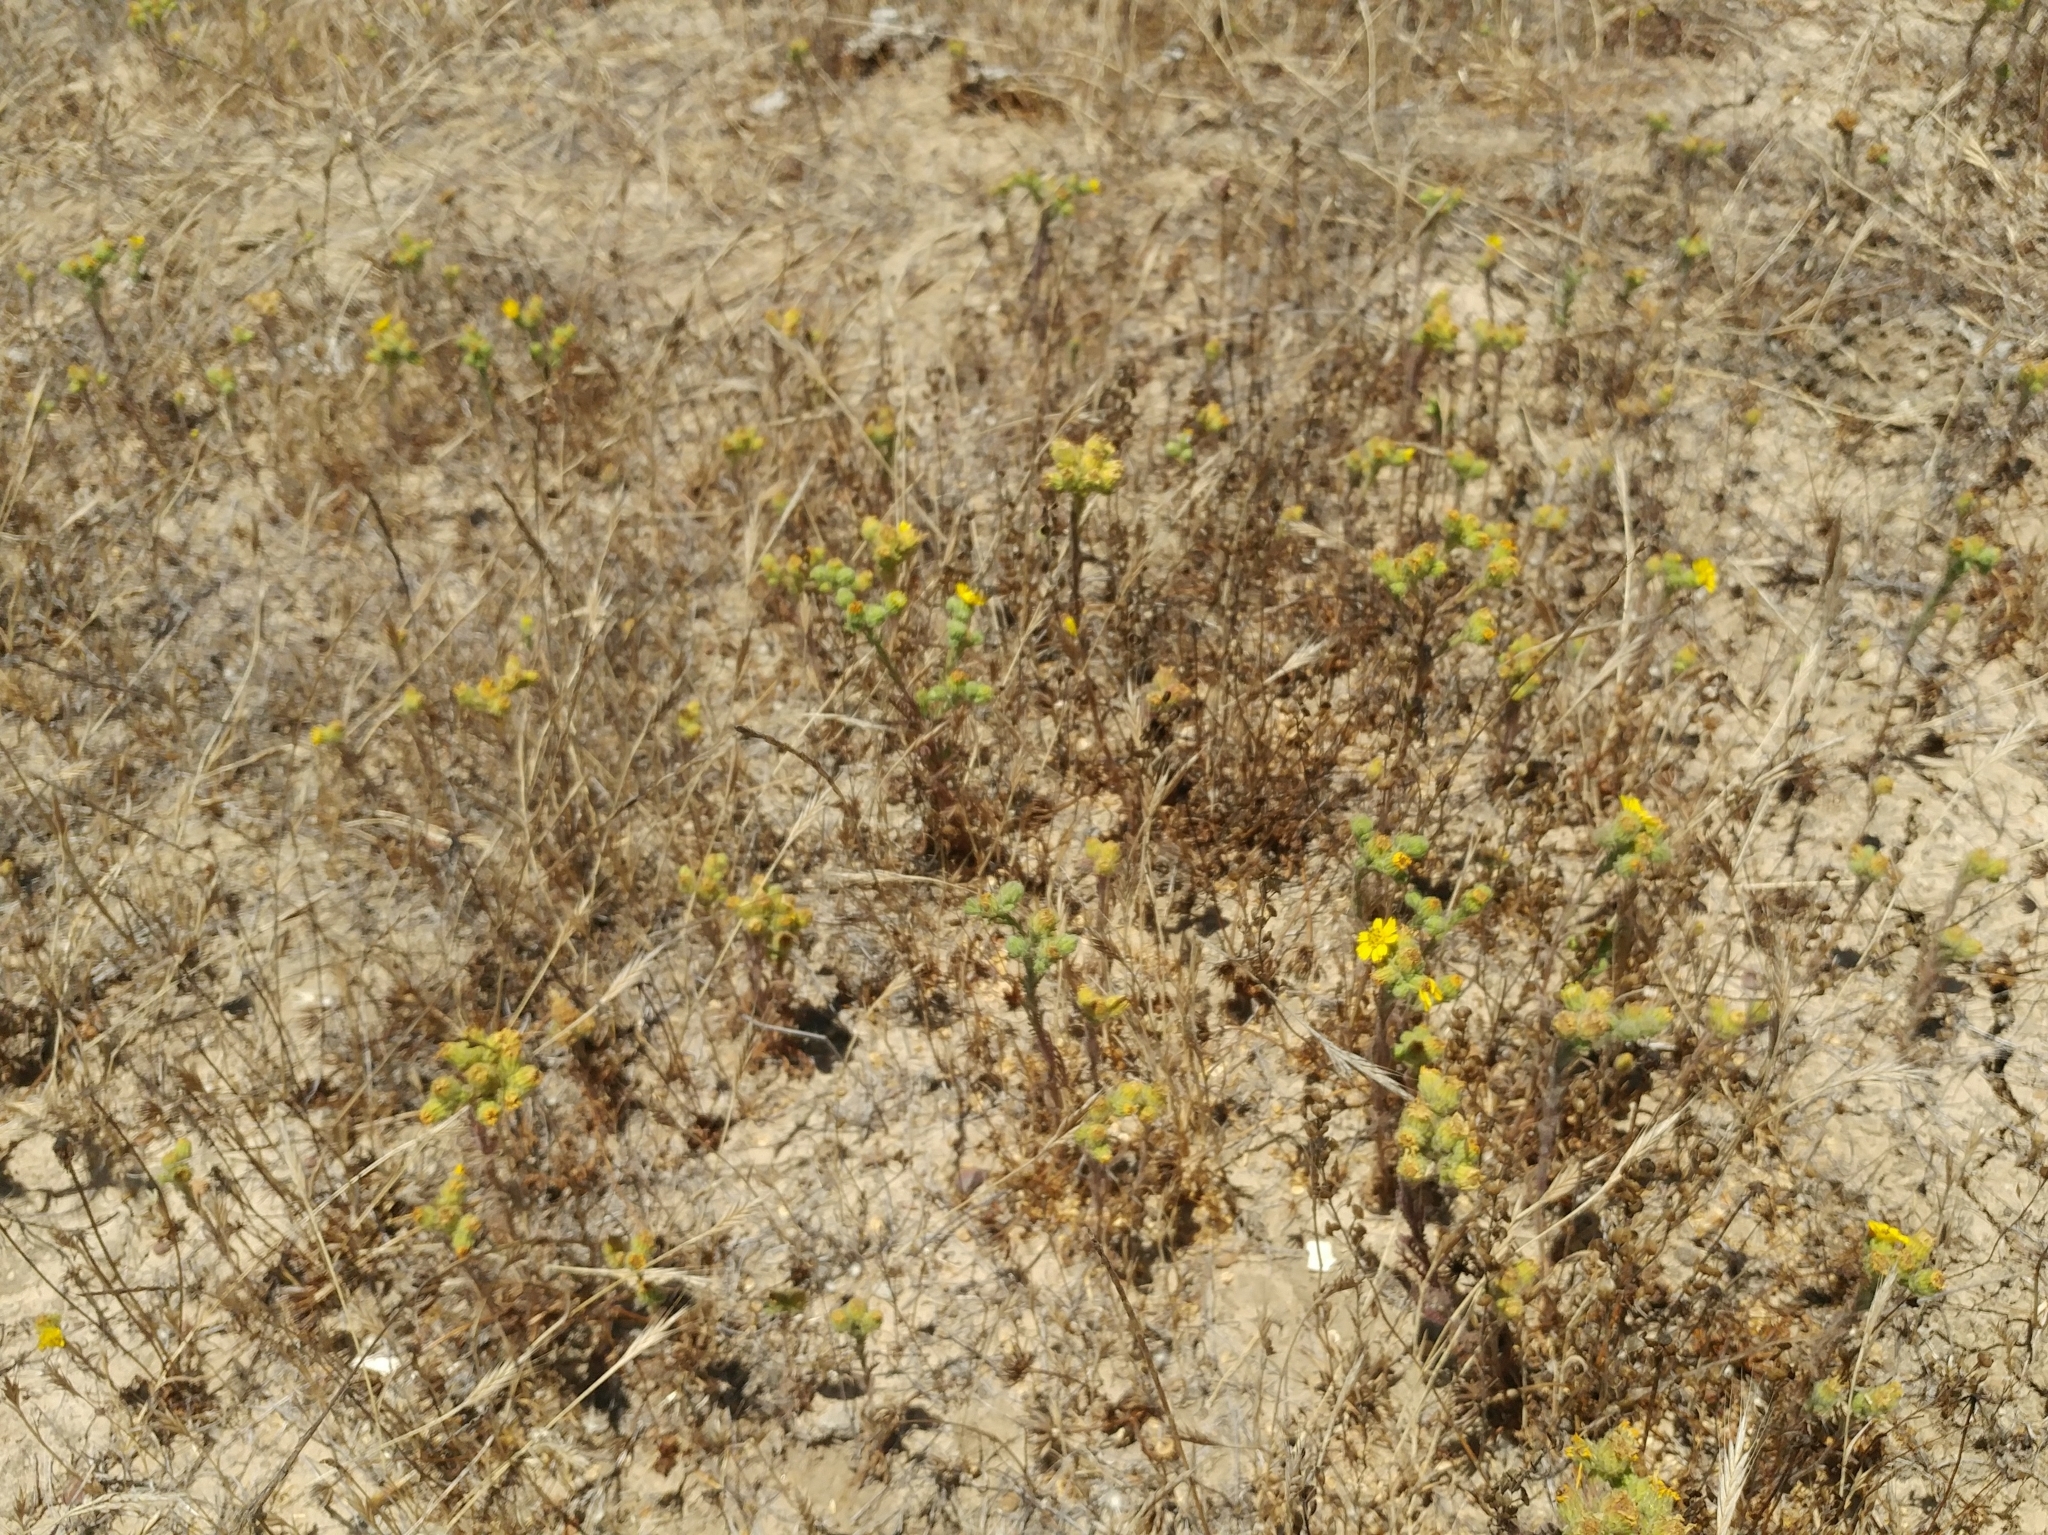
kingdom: Plantae
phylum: Tracheophyta
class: Magnoliopsida
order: Asterales
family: Asteraceae
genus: Deinandra
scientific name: Deinandra increscens
